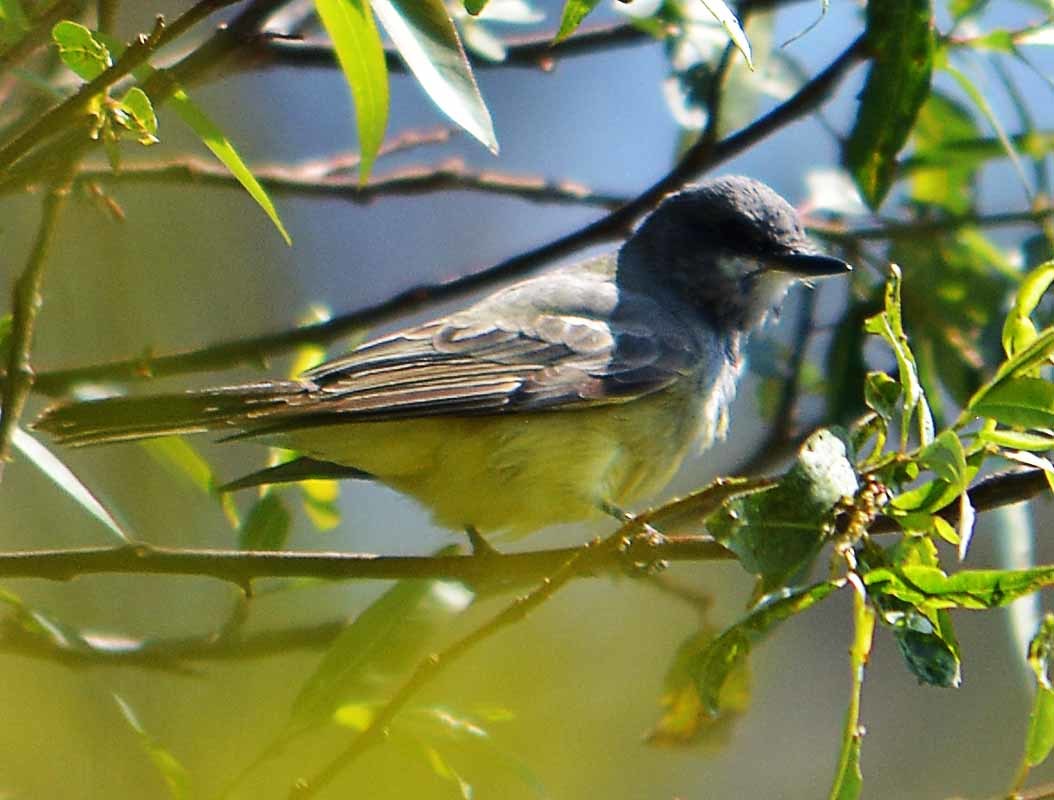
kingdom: Animalia
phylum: Chordata
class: Aves
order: Passeriformes
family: Tyrannidae
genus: Tyrannus
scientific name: Tyrannus vociferans
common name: Cassin's kingbird
